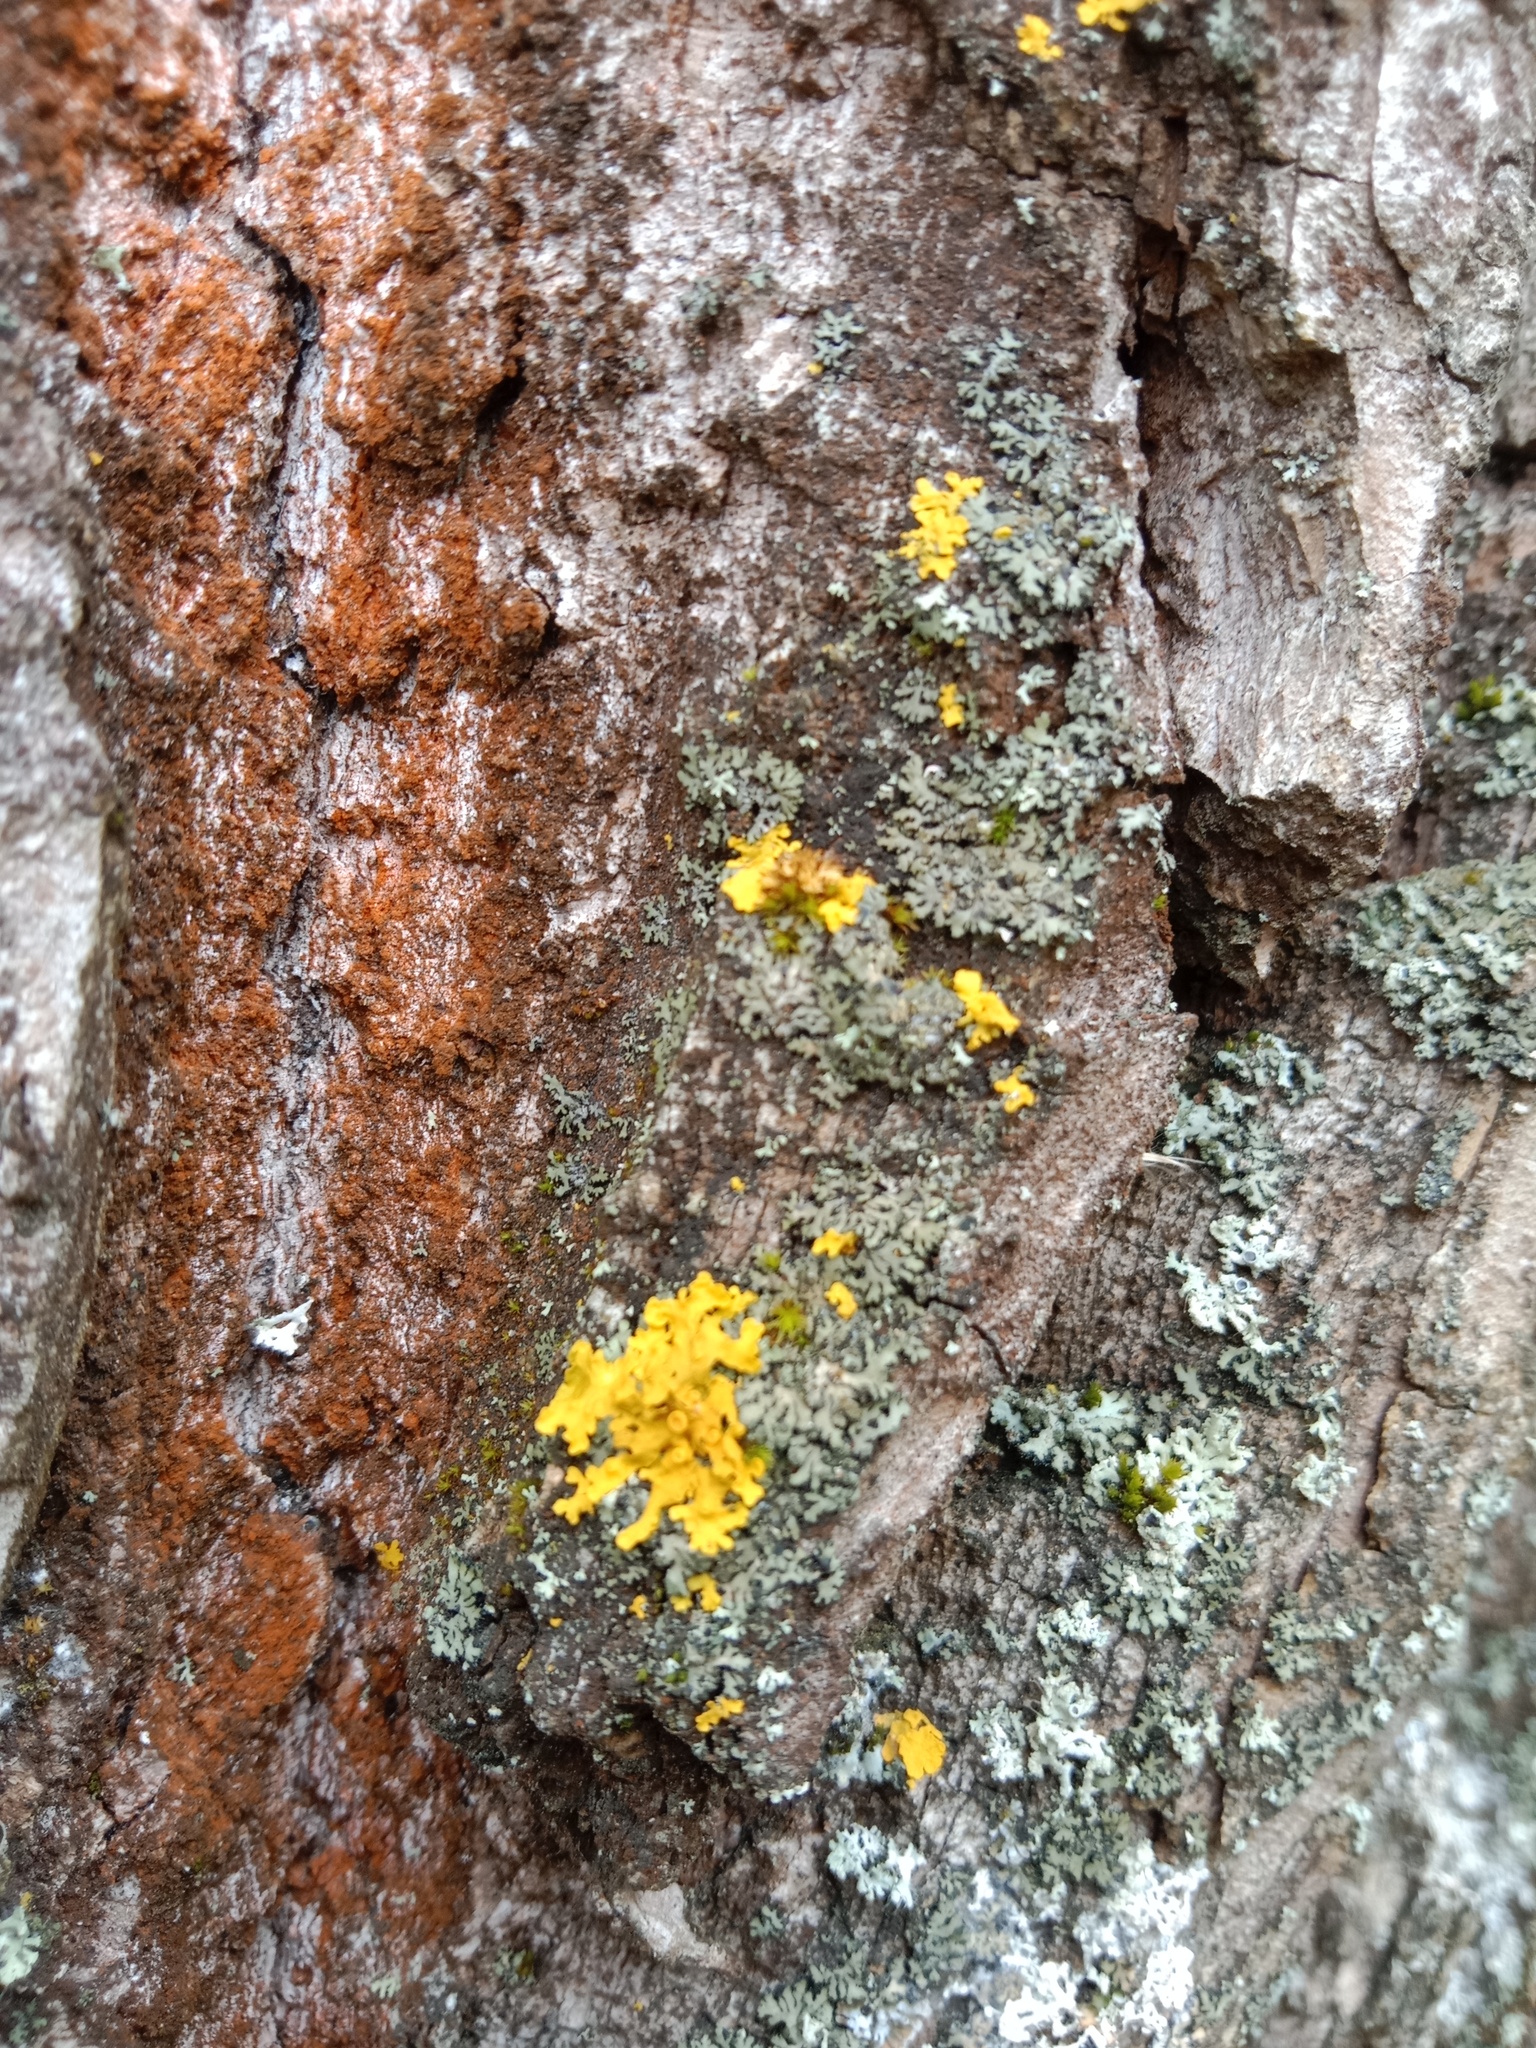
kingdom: Fungi
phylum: Ascomycota
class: Lecanoromycetes
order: Teloschistales
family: Teloschistaceae
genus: Xanthoria
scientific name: Xanthoria parietina
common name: Common orange lichen
